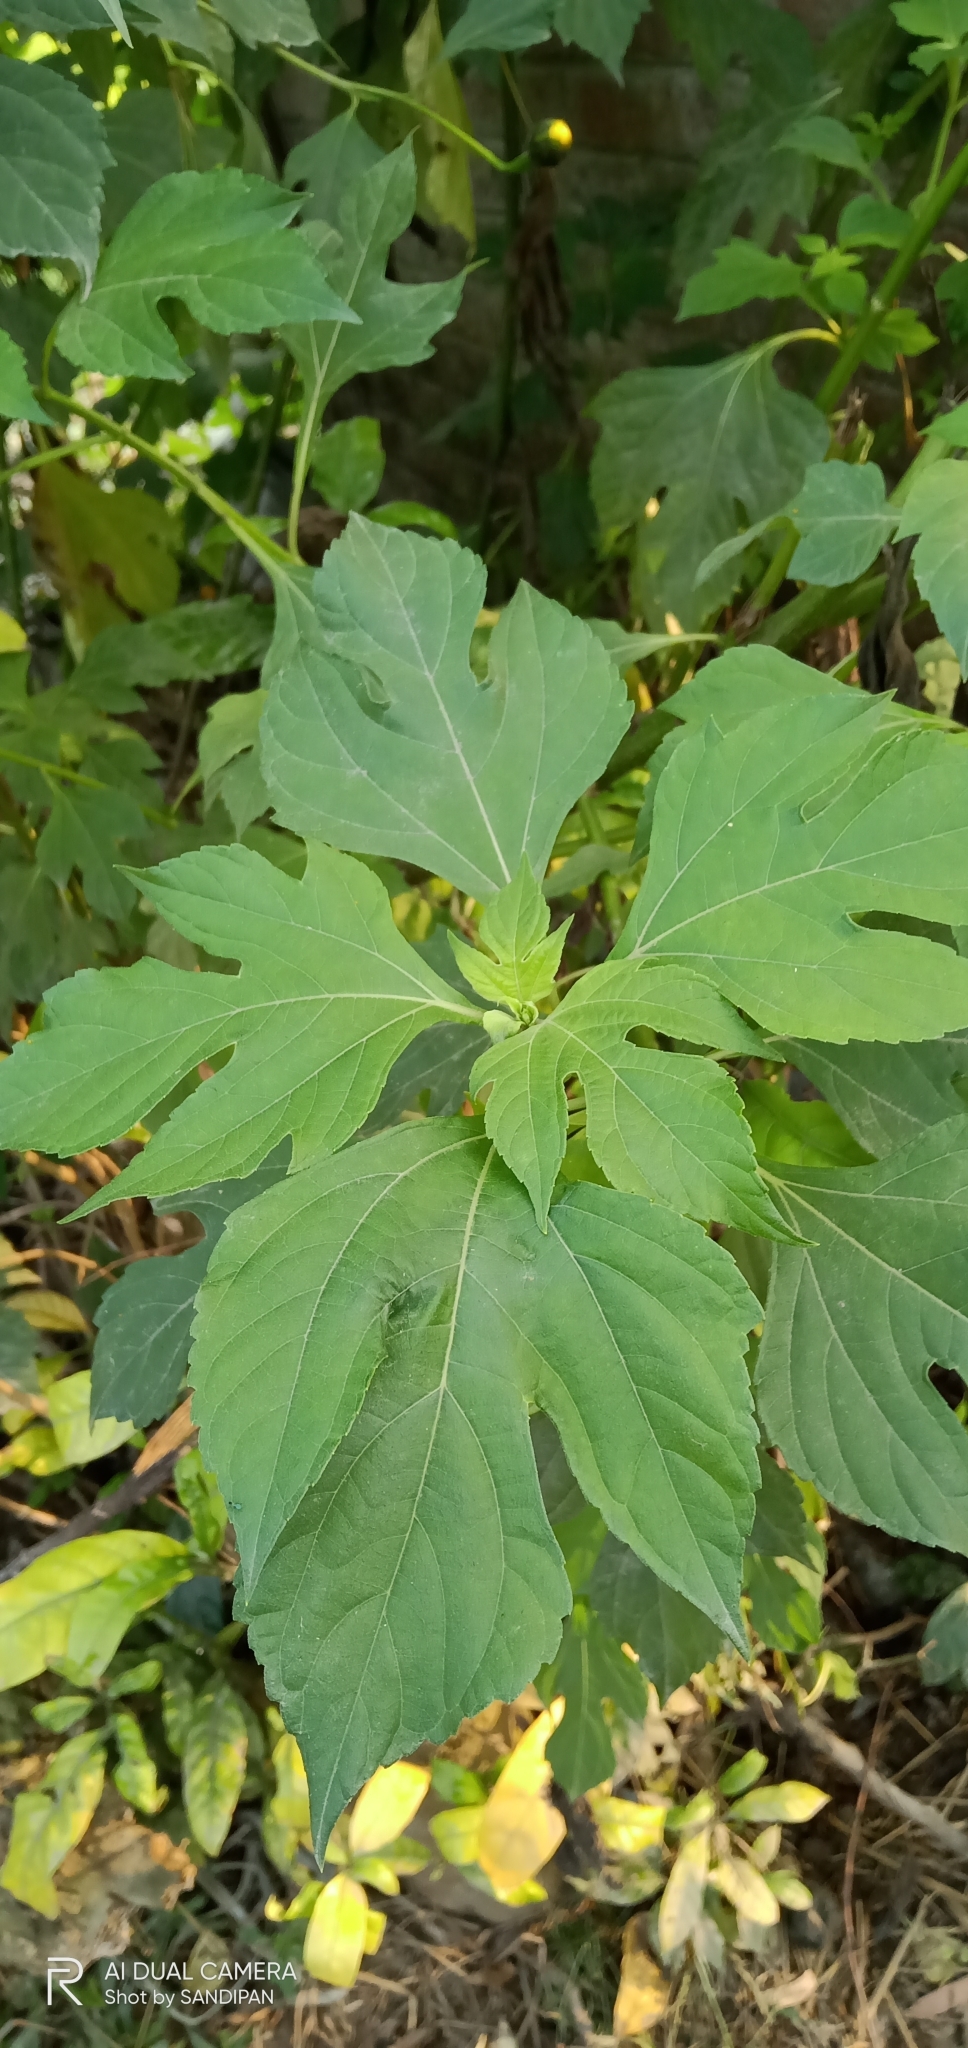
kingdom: Plantae
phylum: Tracheophyta
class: Magnoliopsida
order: Asterales
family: Asteraceae
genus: Tithonia
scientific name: Tithonia diversifolia
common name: Tree marigold
